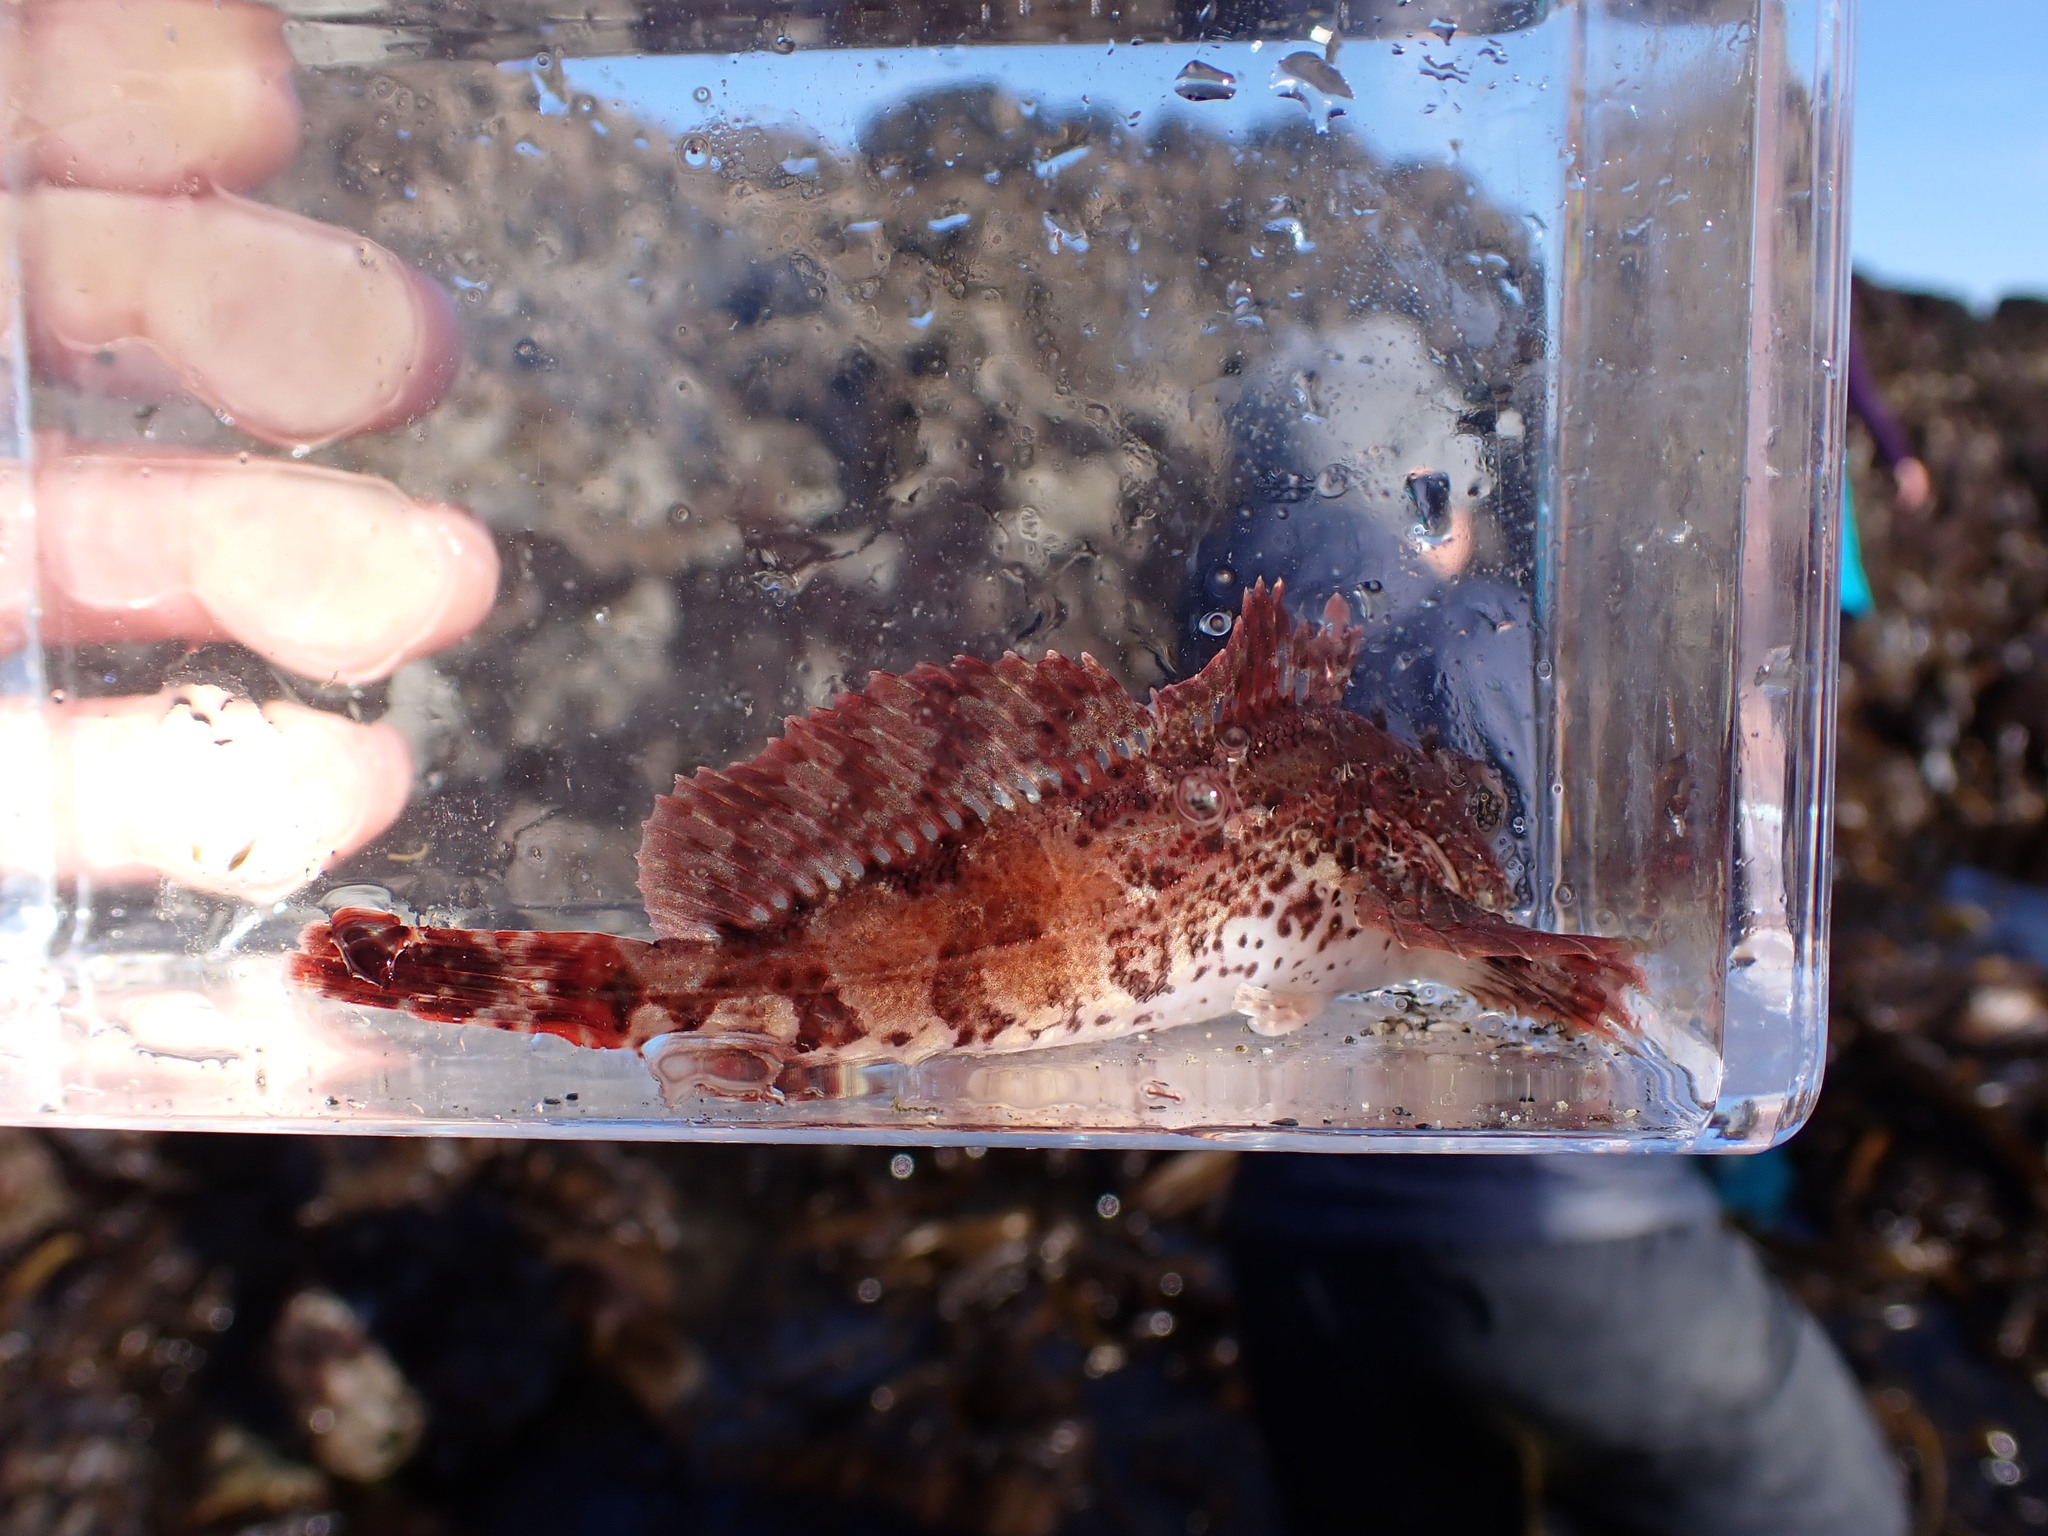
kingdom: Animalia
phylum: Chordata
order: Scorpaeniformes
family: Cottidae
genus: Hemilepidotus
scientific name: Hemilepidotus hemilepidotus
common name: Red irish lord
